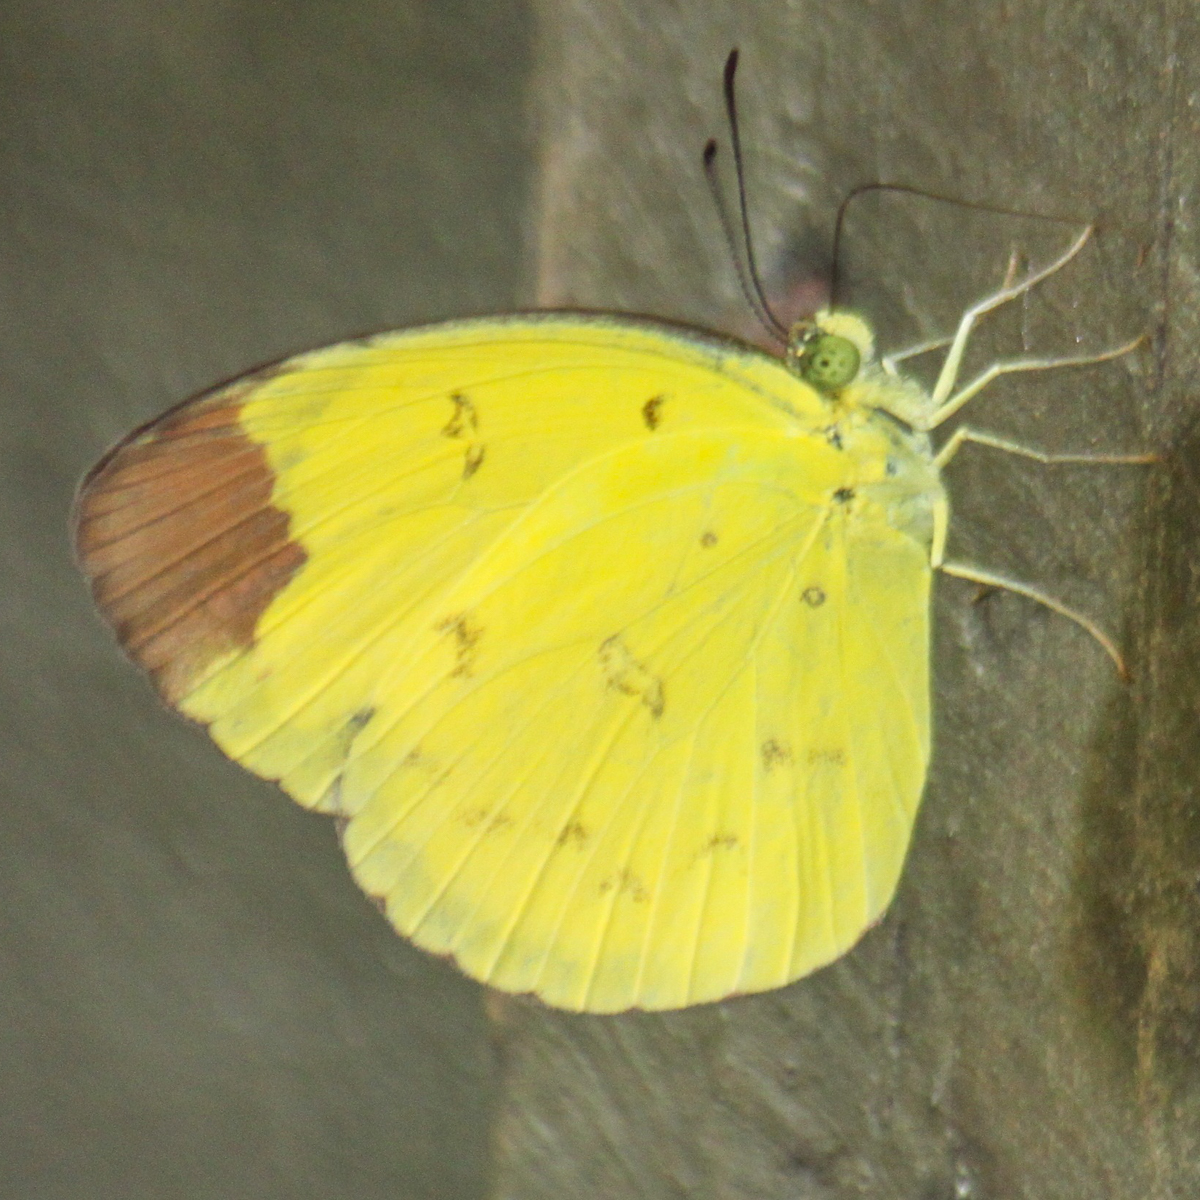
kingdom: Animalia
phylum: Arthropoda
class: Insecta
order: Lepidoptera
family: Pieridae
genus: Eurema
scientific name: Eurema sari
